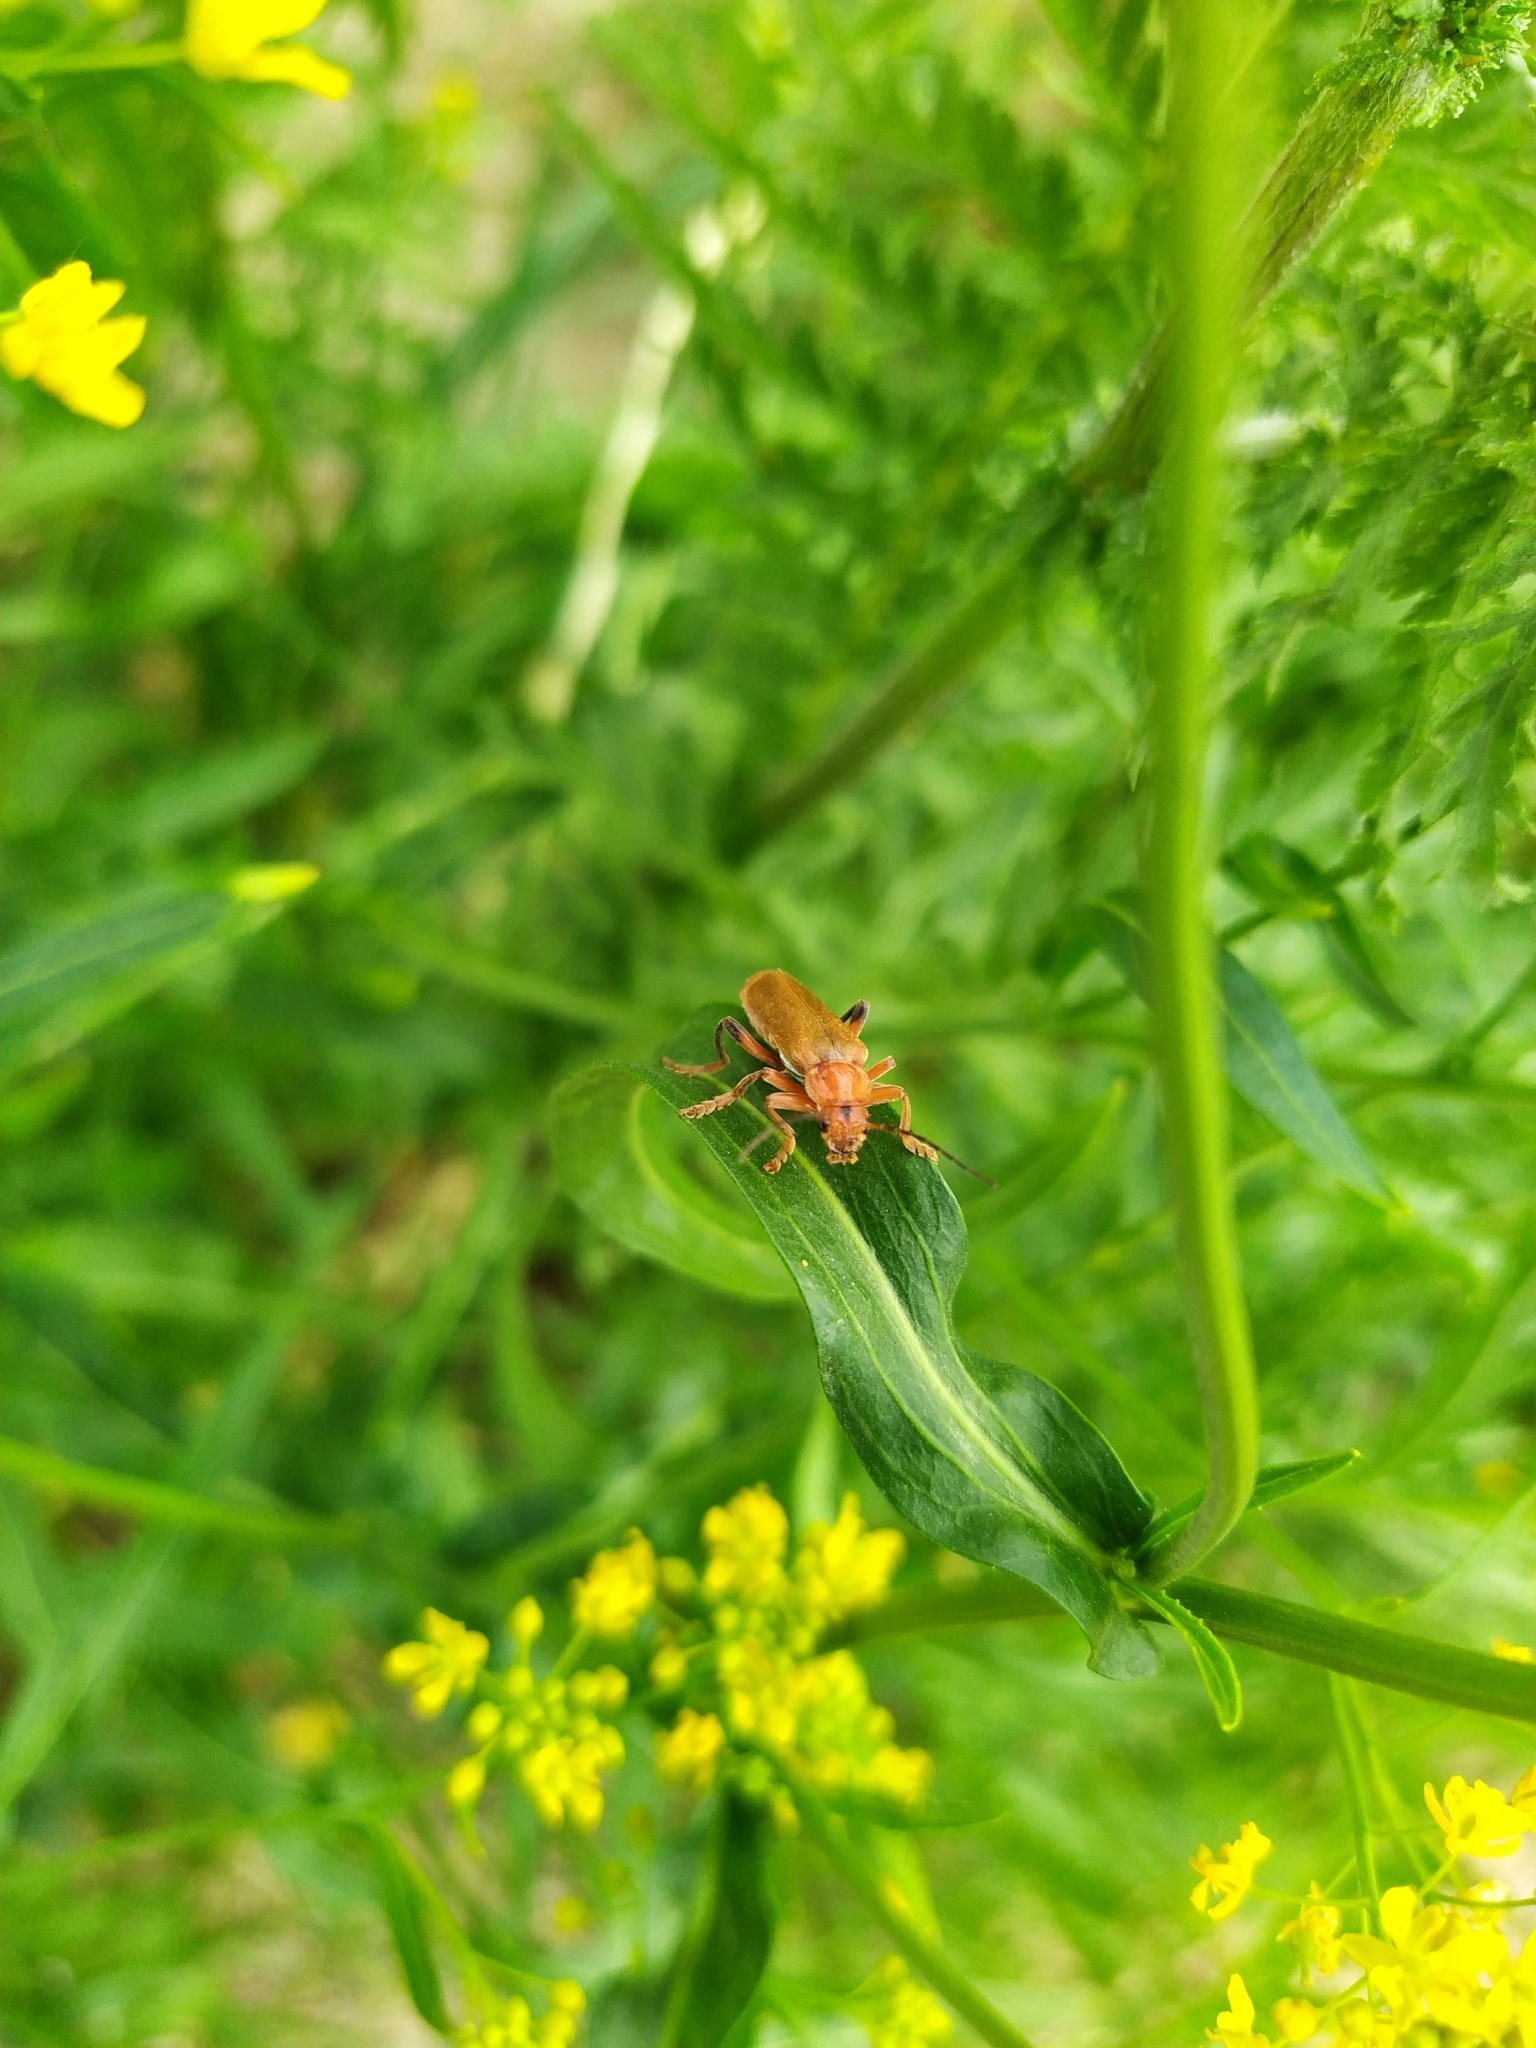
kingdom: Animalia
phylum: Arthropoda
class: Insecta
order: Coleoptera
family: Cantharidae
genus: Cantharis
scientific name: Cantharis livida
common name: Livid soldier beetle
